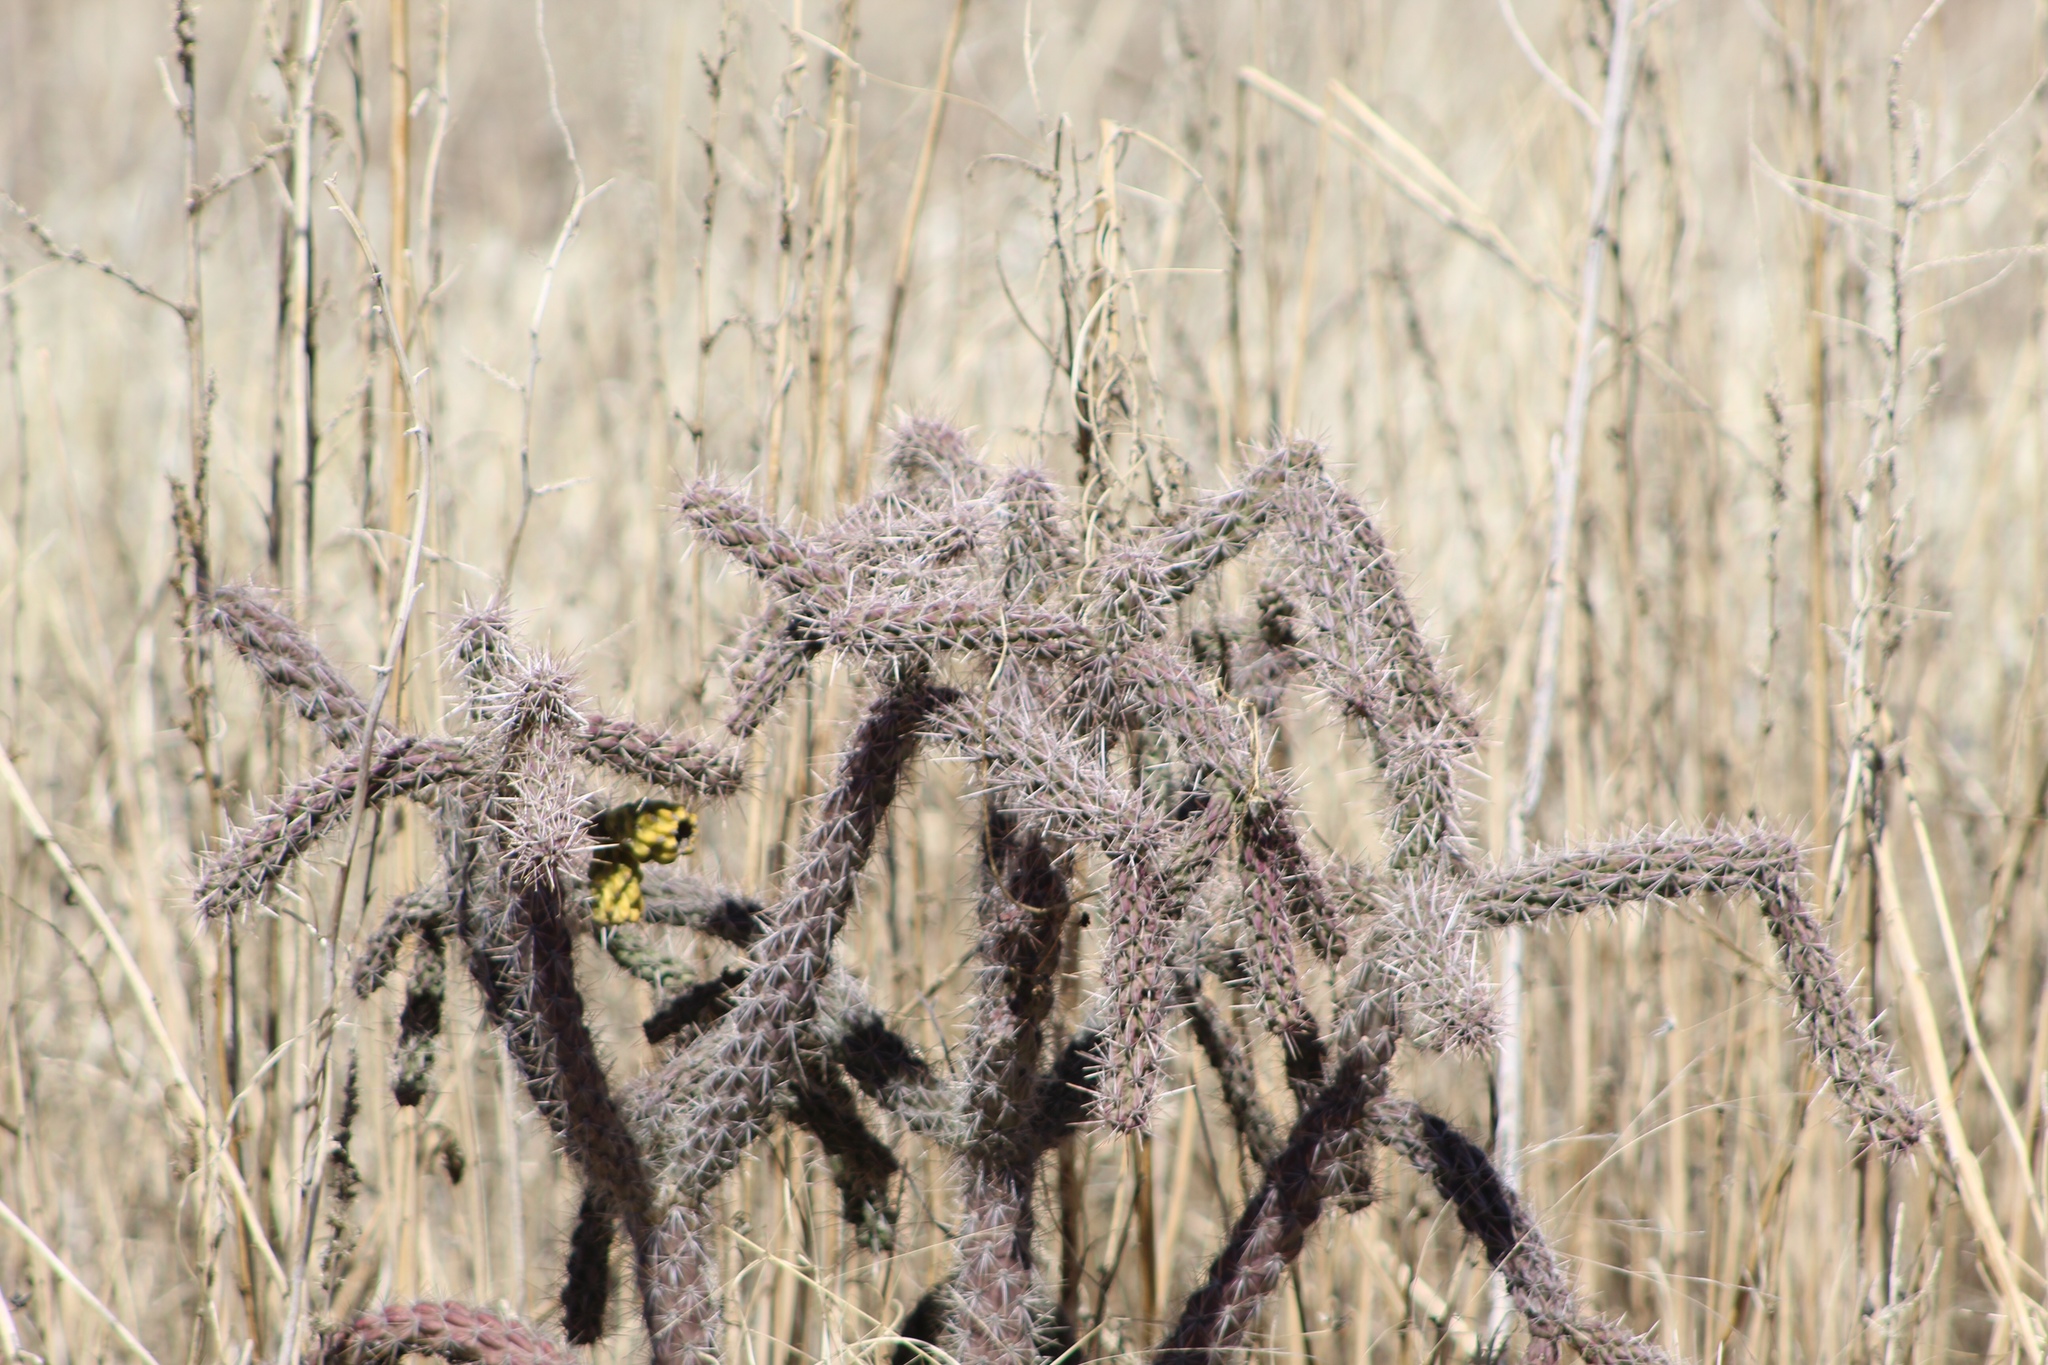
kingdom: Plantae
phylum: Tracheophyta
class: Magnoliopsida
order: Caryophyllales
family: Cactaceae
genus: Cylindropuntia
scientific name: Cylindropuntia imbricata
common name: Candelabrum cactus
